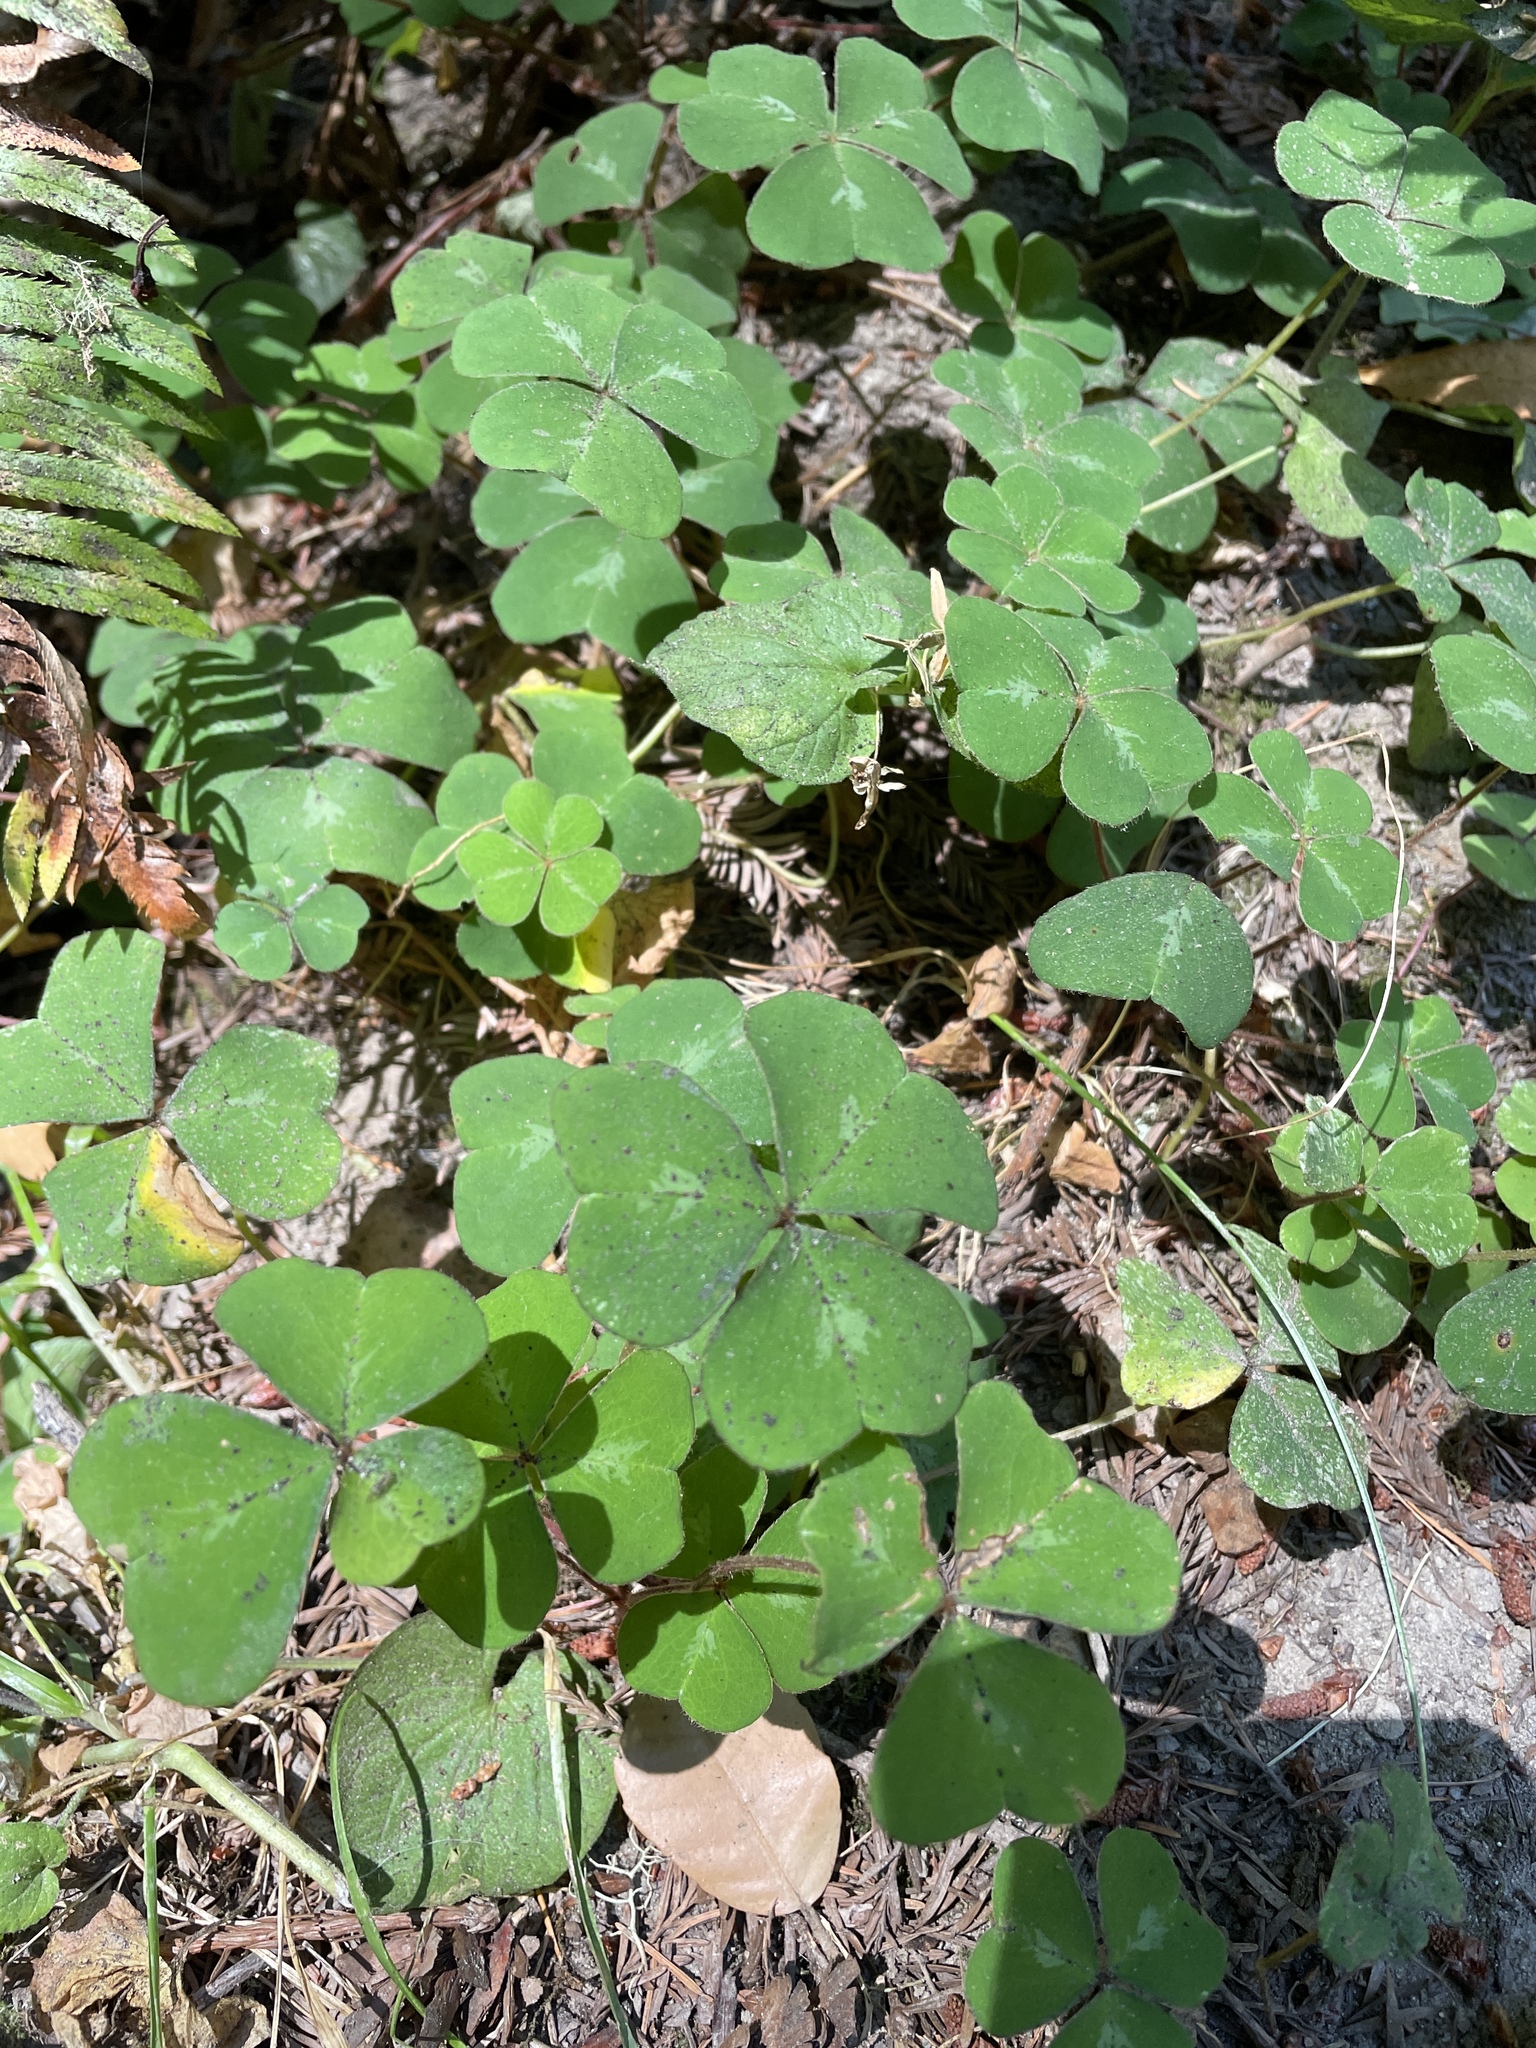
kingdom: Plantae
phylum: Tracheophyta
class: Magnoliopsida
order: Oxalidales
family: Oxalidaceae
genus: Oxalis
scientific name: Oxalis oregana
